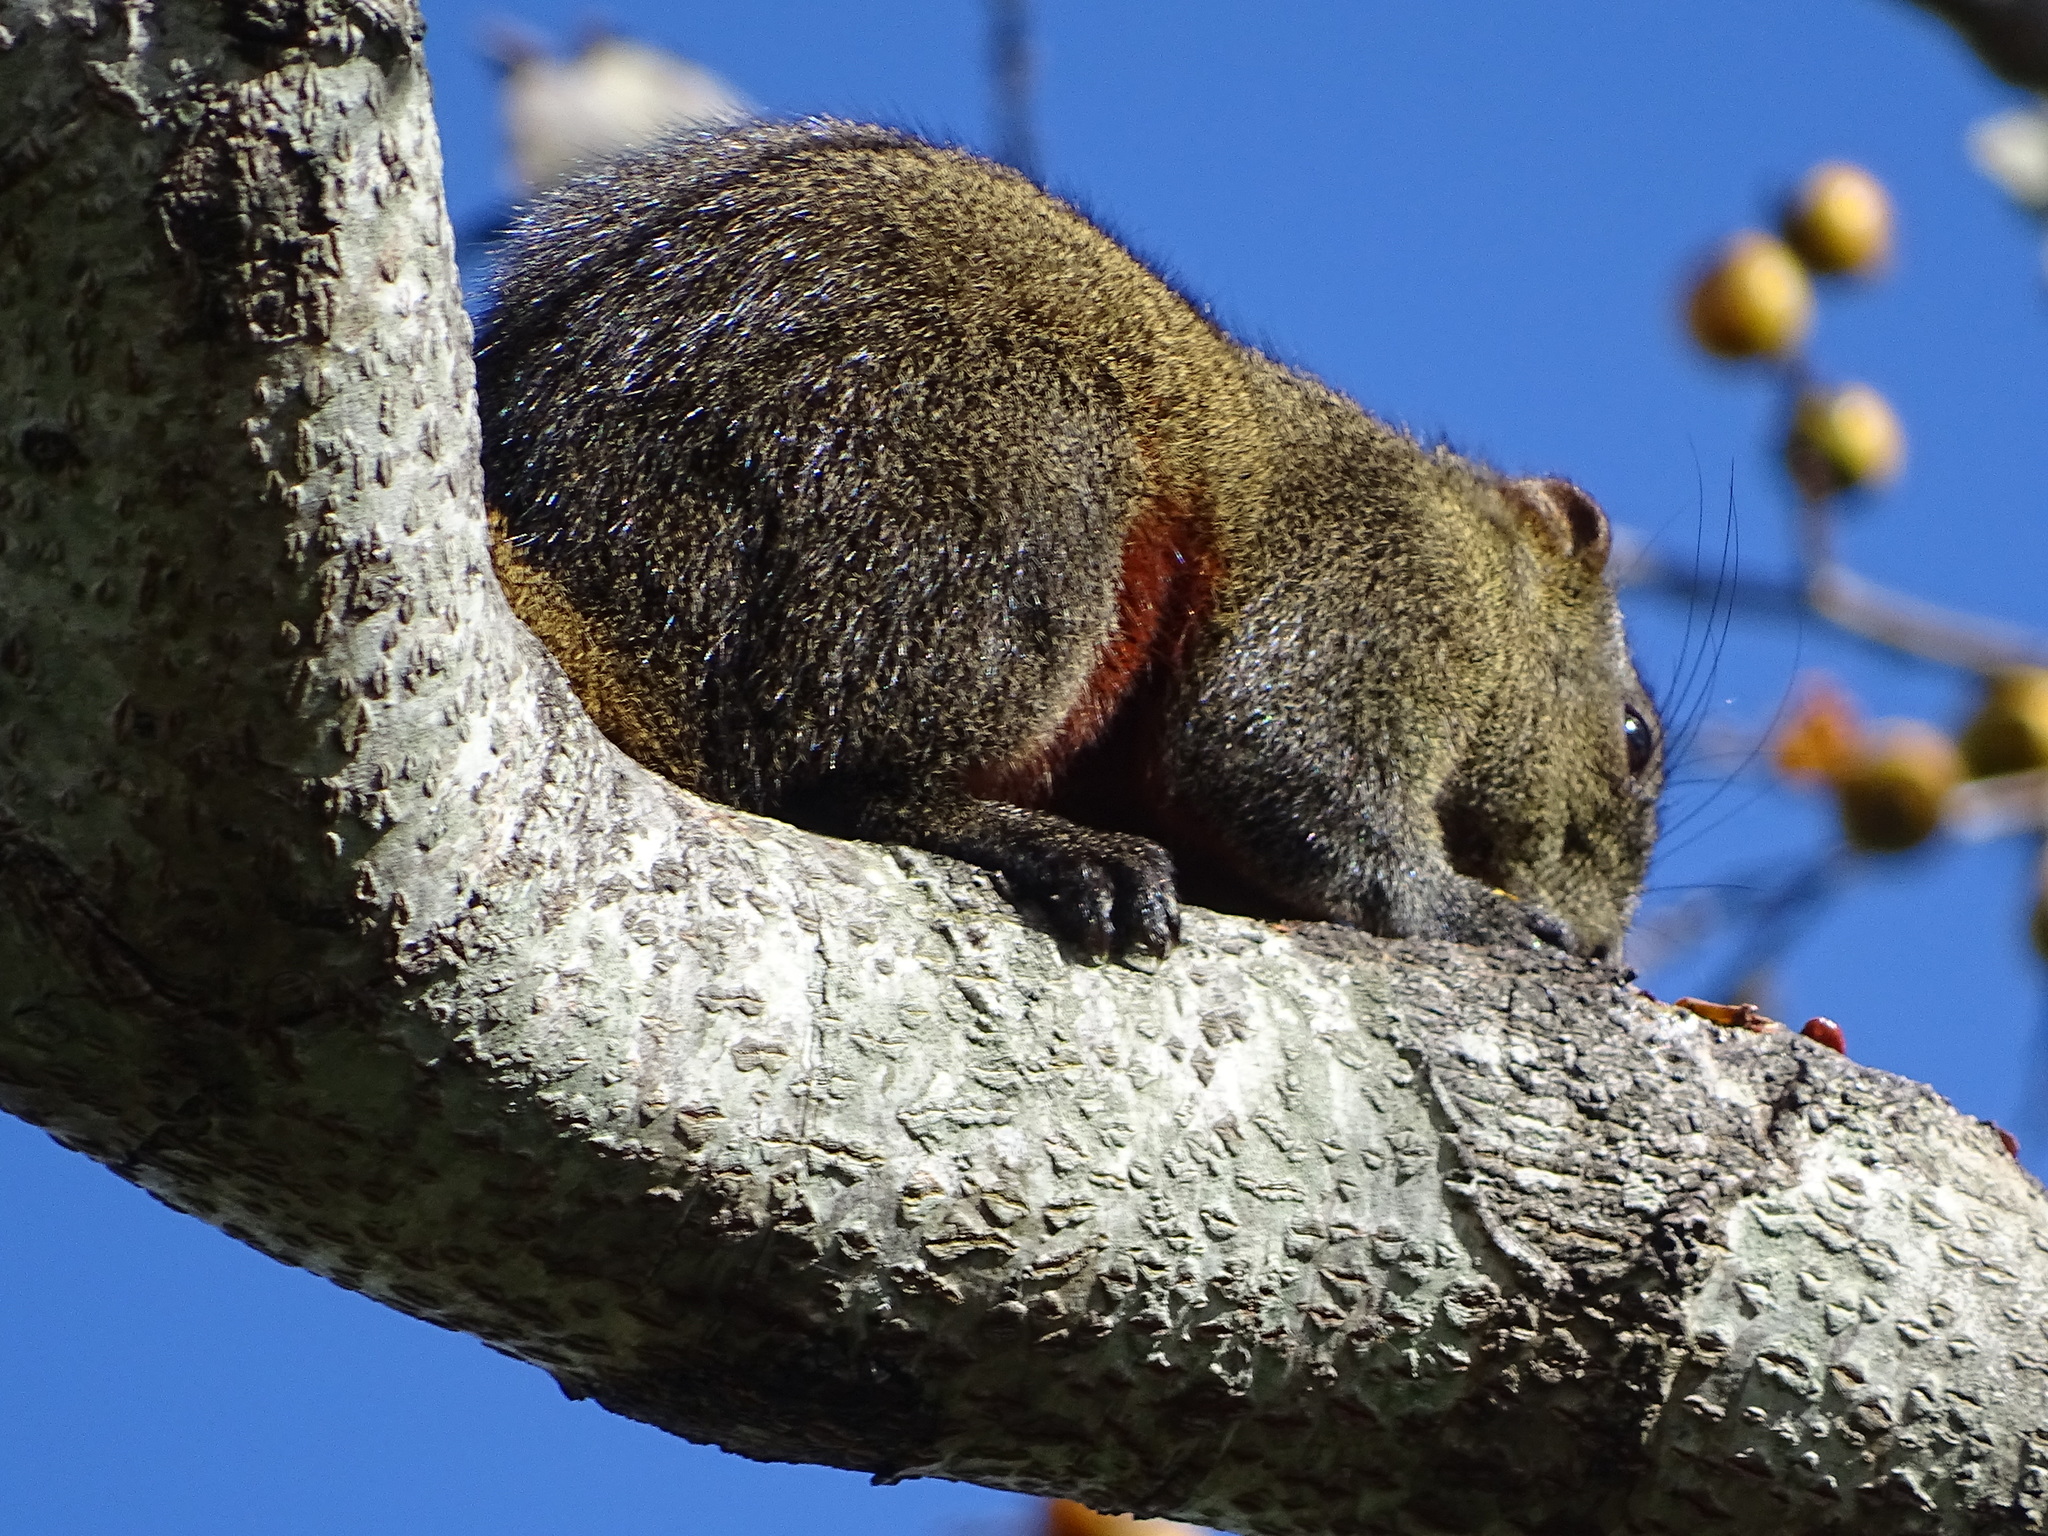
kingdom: Animalia
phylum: Chordata
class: Mammalia
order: Rodentia
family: Sciuridae
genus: Callosciurus
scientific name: Callosciurus erythraeus
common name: Pallas's squirrel
